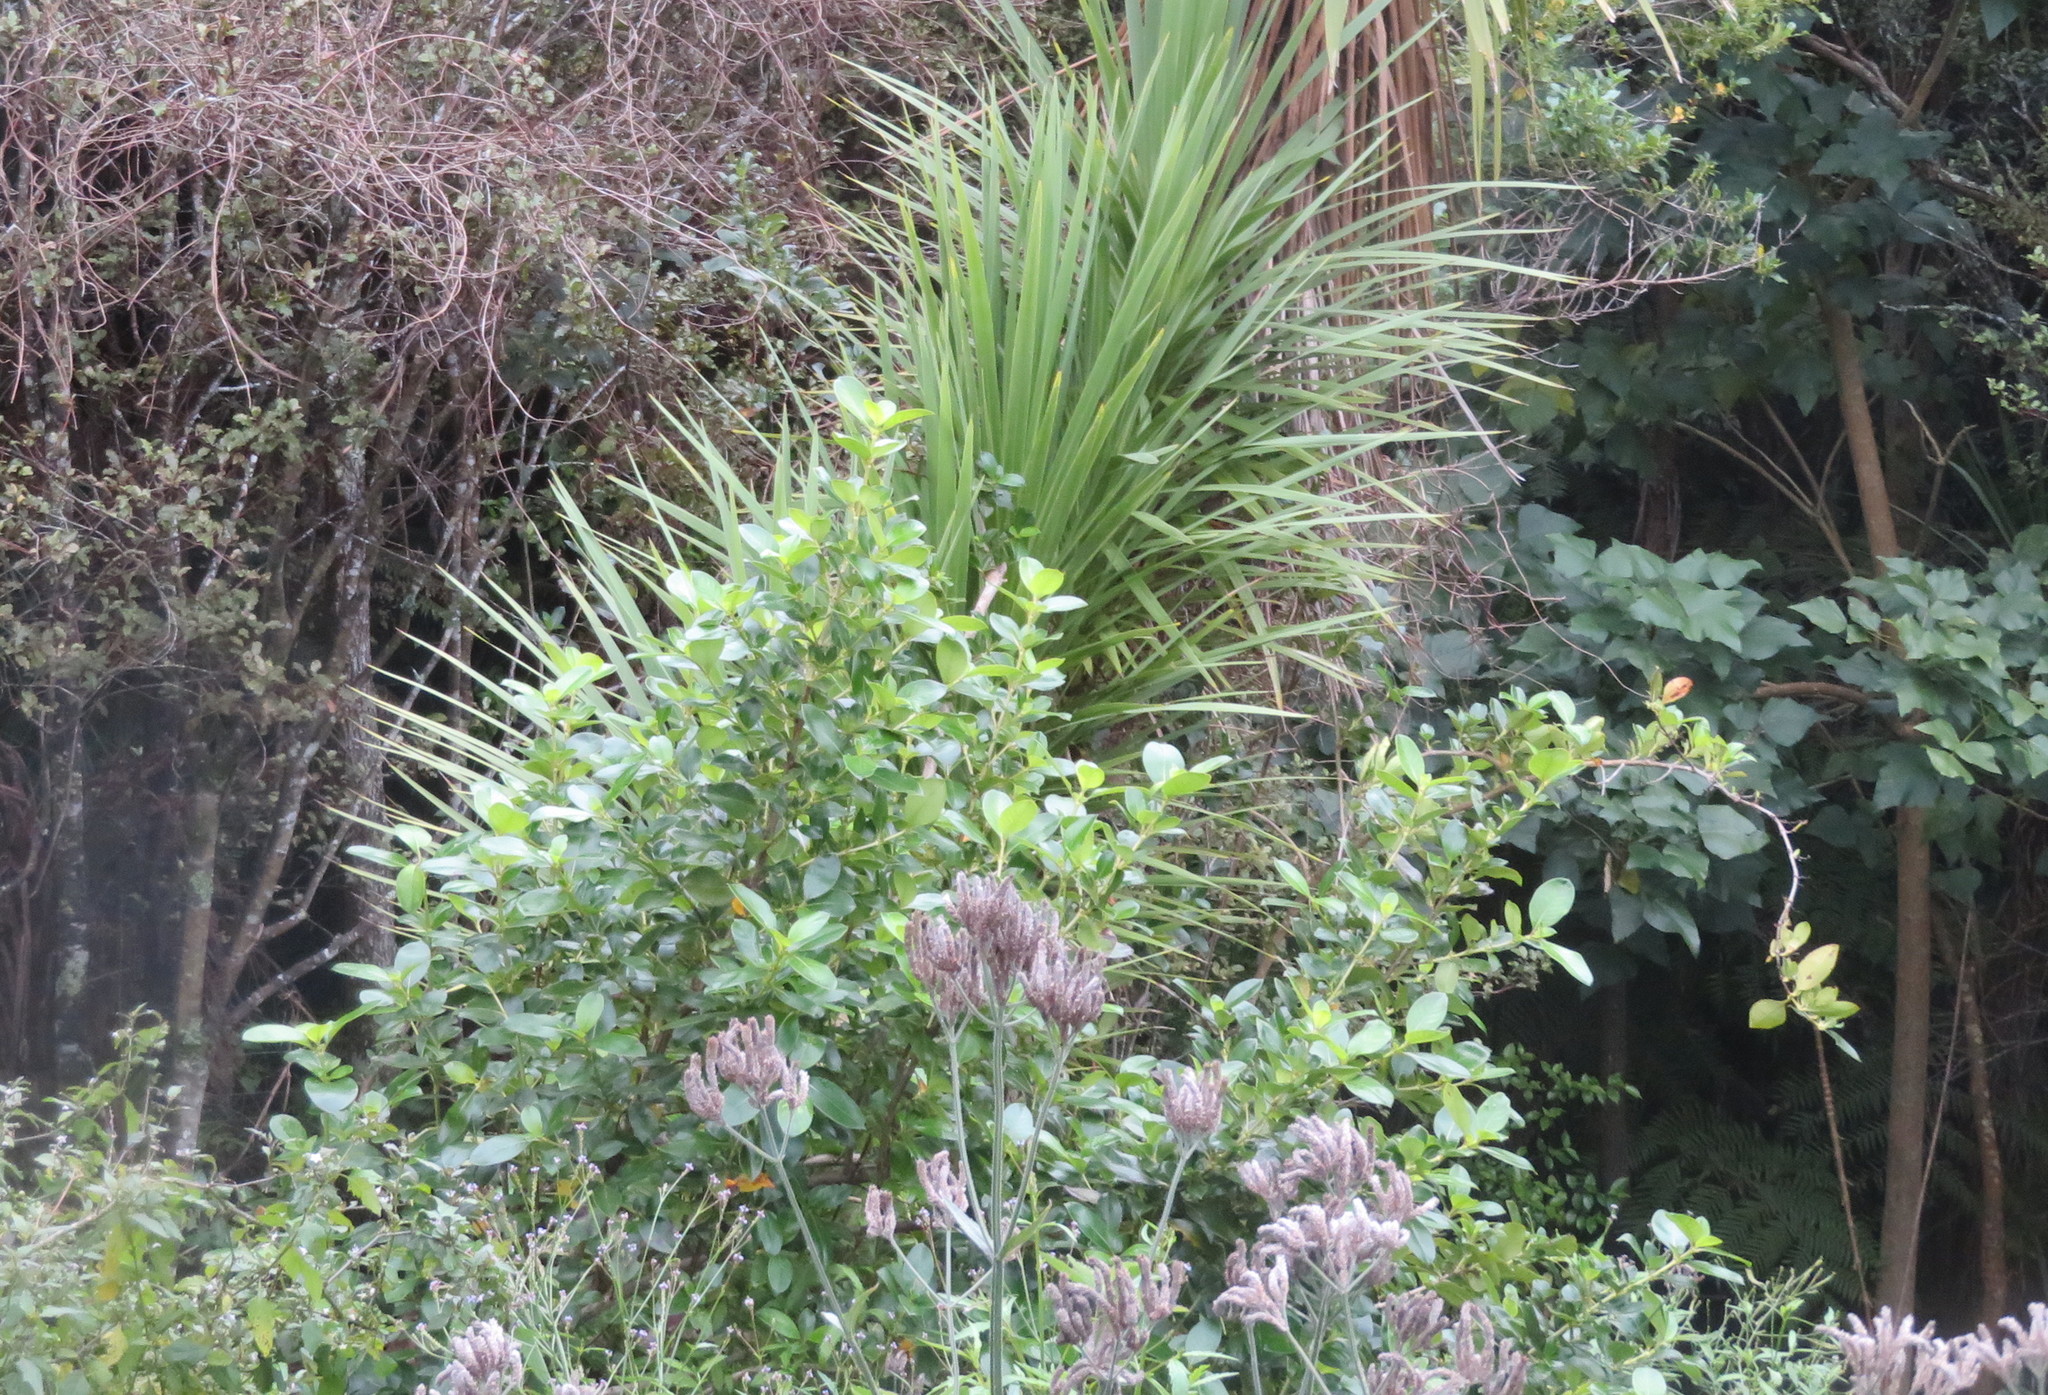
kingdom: Plantae
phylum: Tracheophyta
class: Magnoliopsida
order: Gentianales
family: Rubiaceae
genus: Coprosma
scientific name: Coprosma robusta
